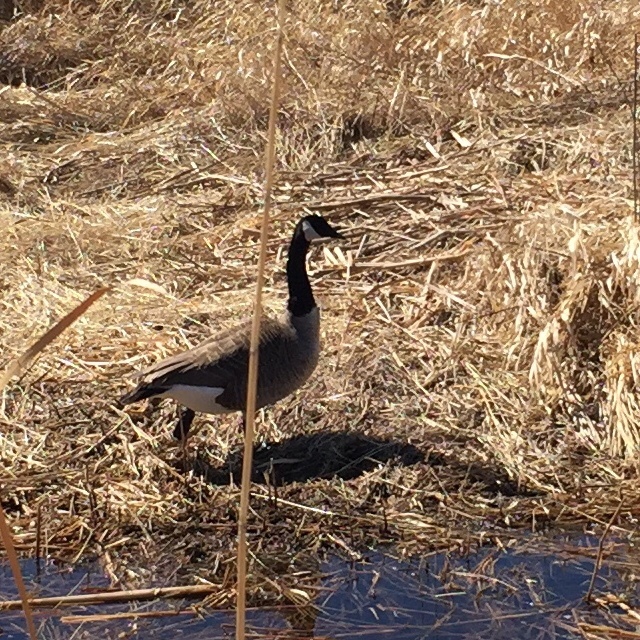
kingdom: Animalia
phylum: Chordata
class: Aves
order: Anseriformes
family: Anatidae
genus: Branta
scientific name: Branta canadensis
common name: Canada goose
